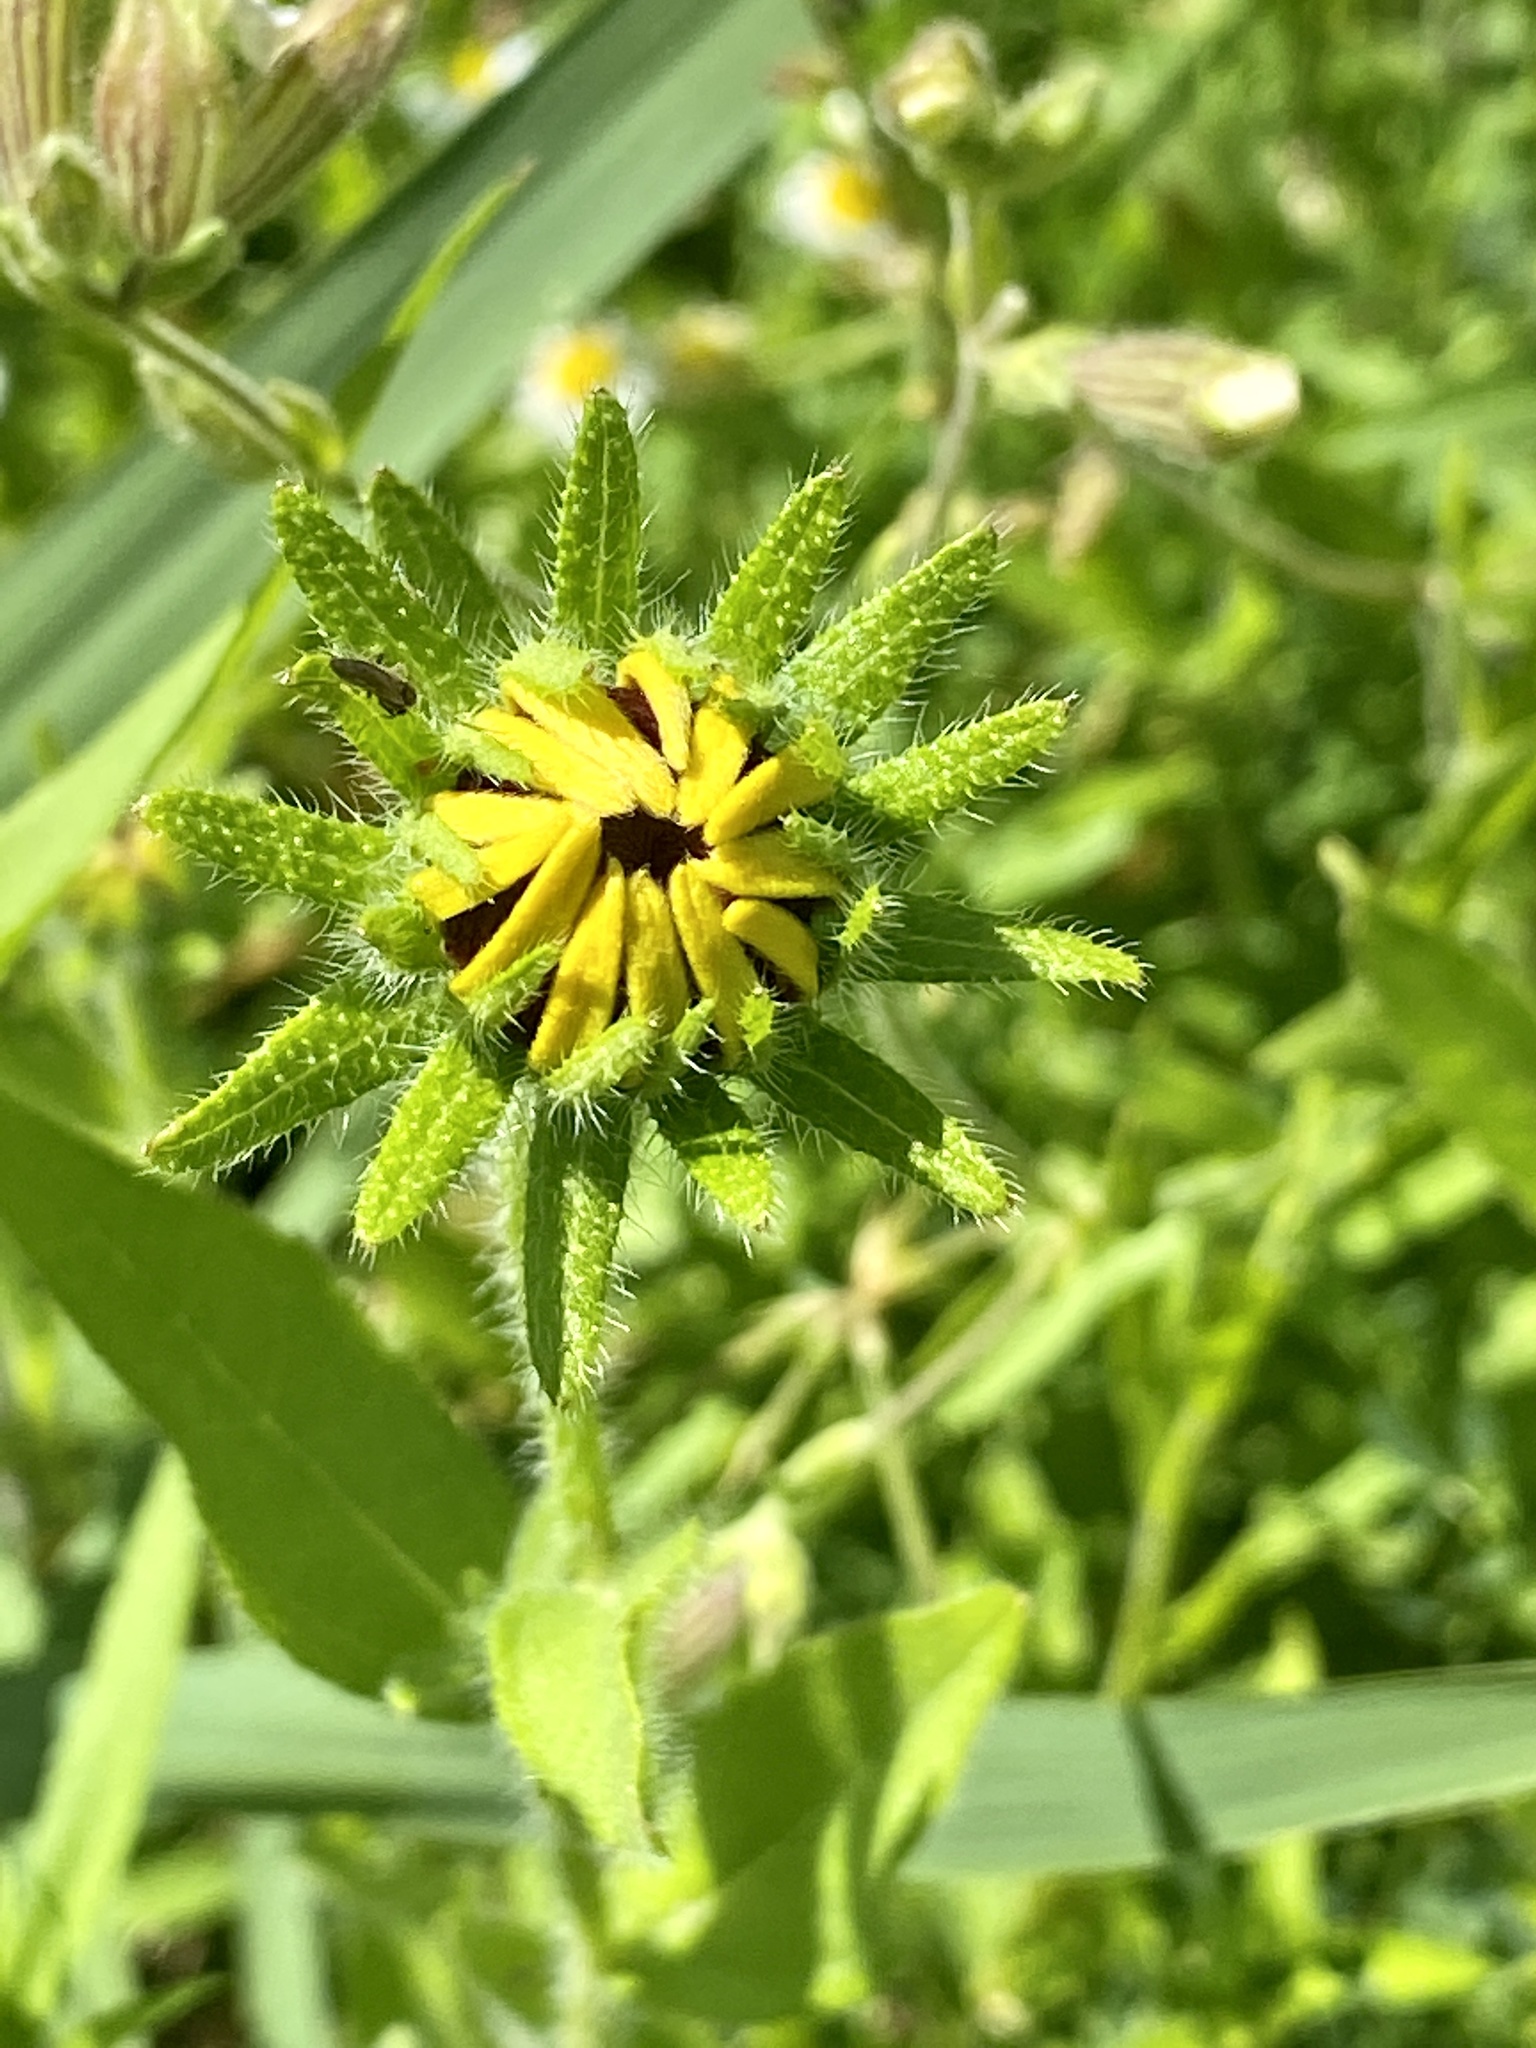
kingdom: Plantae
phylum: Tracheophyta
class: Magnoliopsida
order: Asterales
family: Asteraceae
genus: Rudbeckia
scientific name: Rudbeckia hirta
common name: Black-eyed-susan
